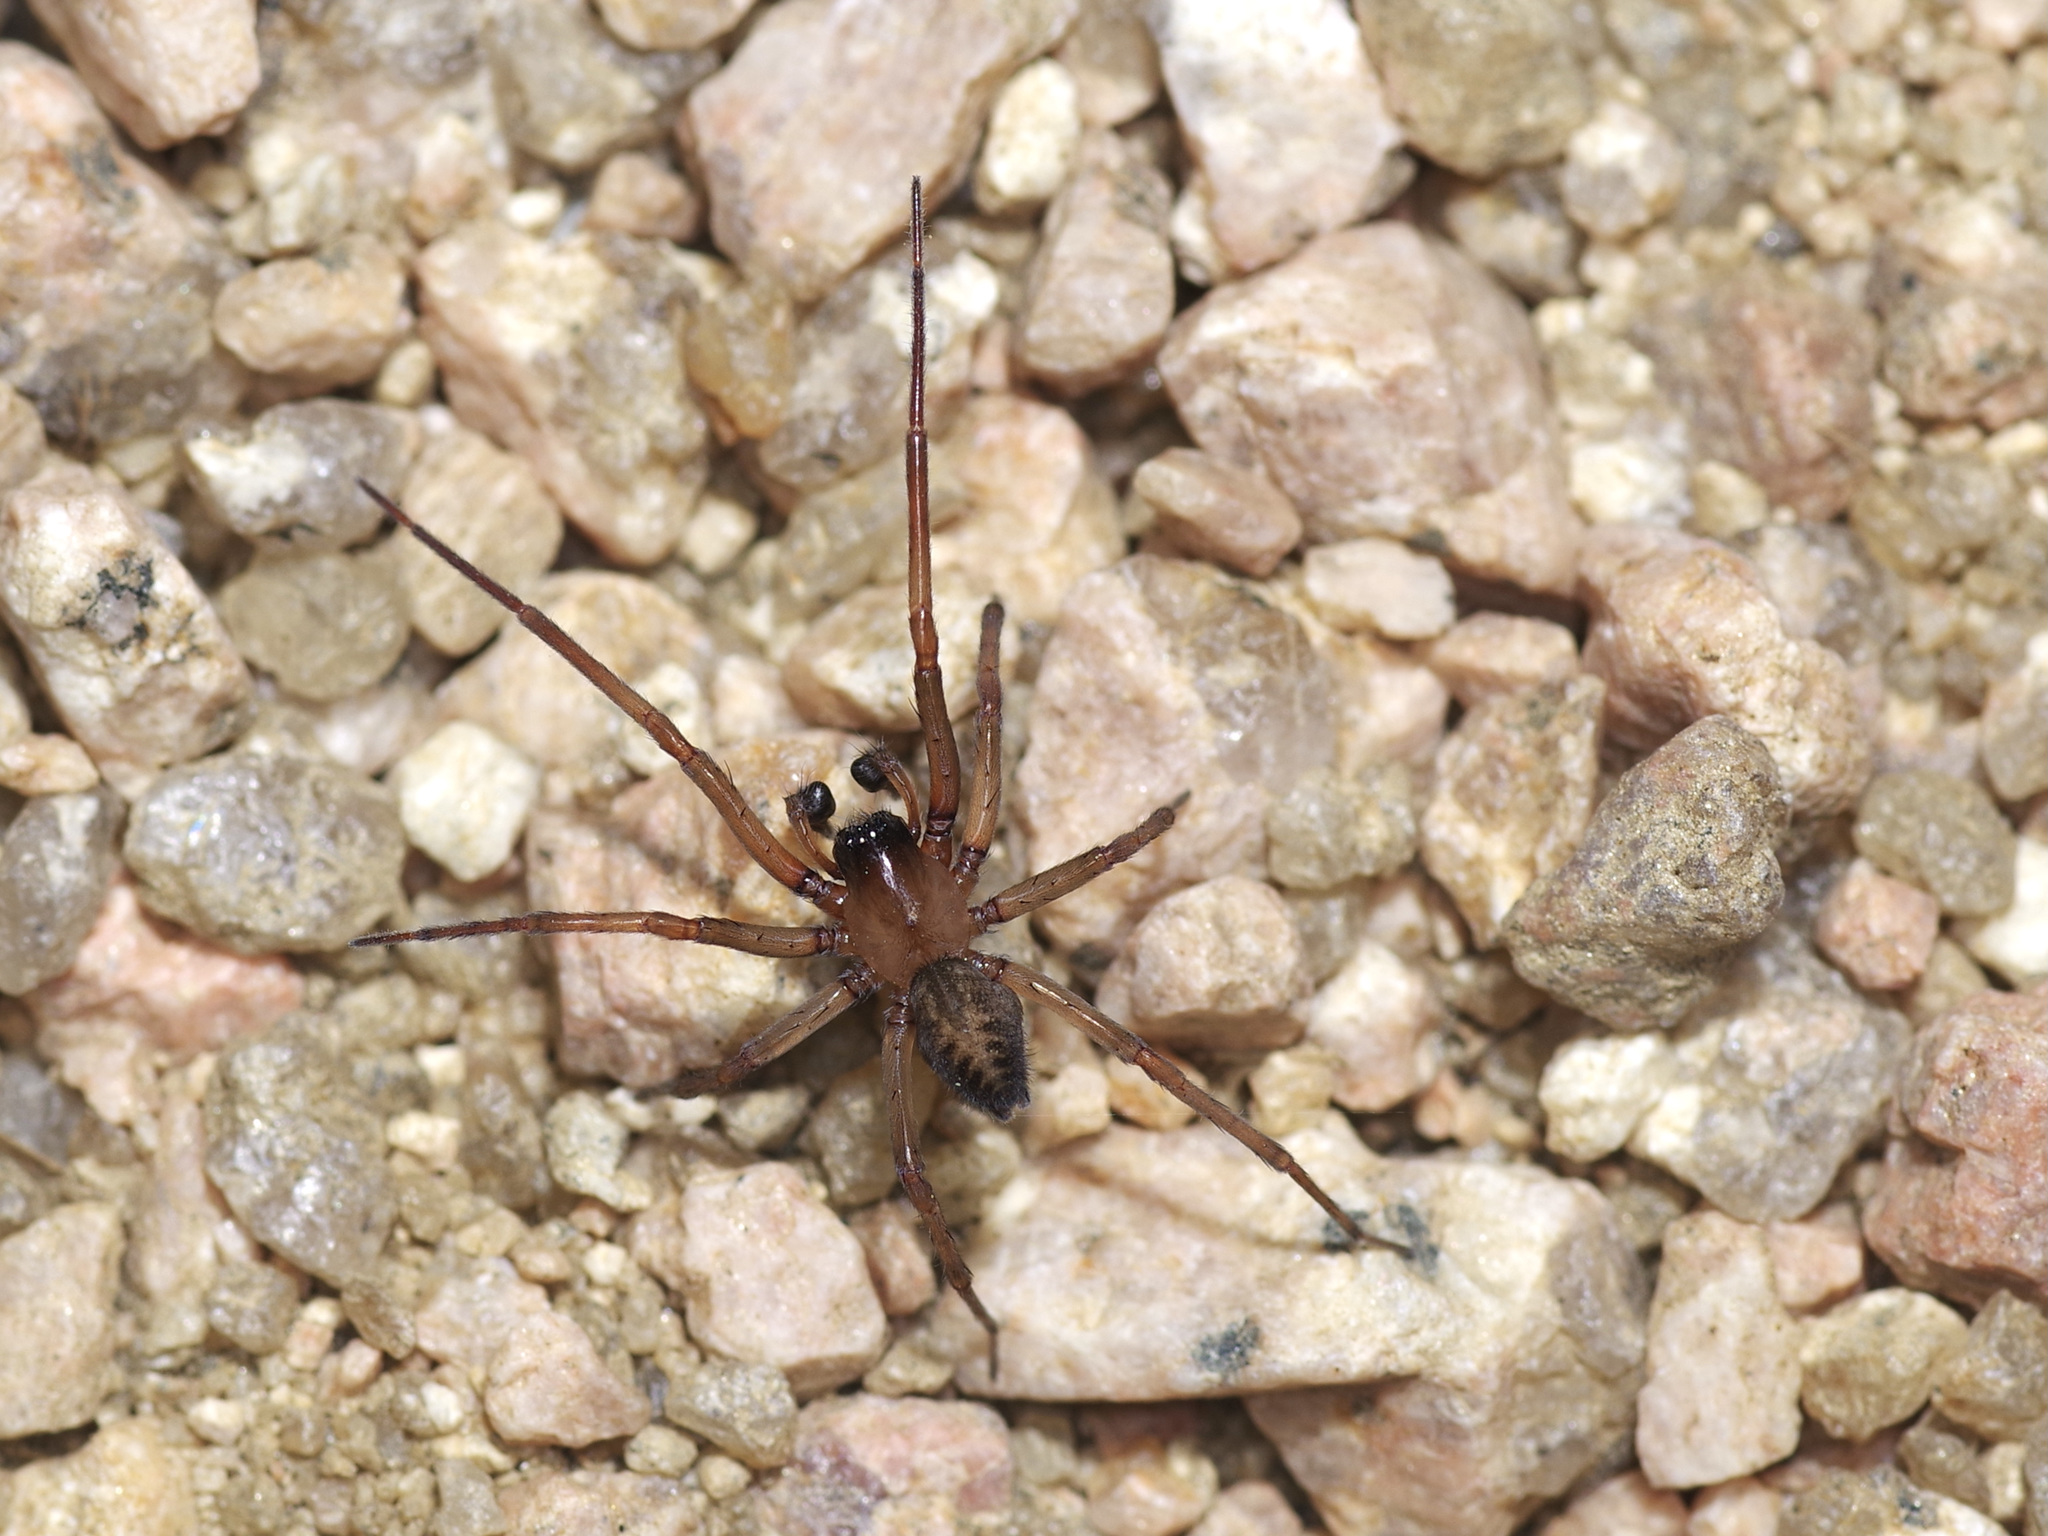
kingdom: Animalia
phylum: Arthropoda
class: Arachnida
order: Araneae
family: Desidae
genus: Metaltella
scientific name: Metaltella simoni
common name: Cribellate spider
